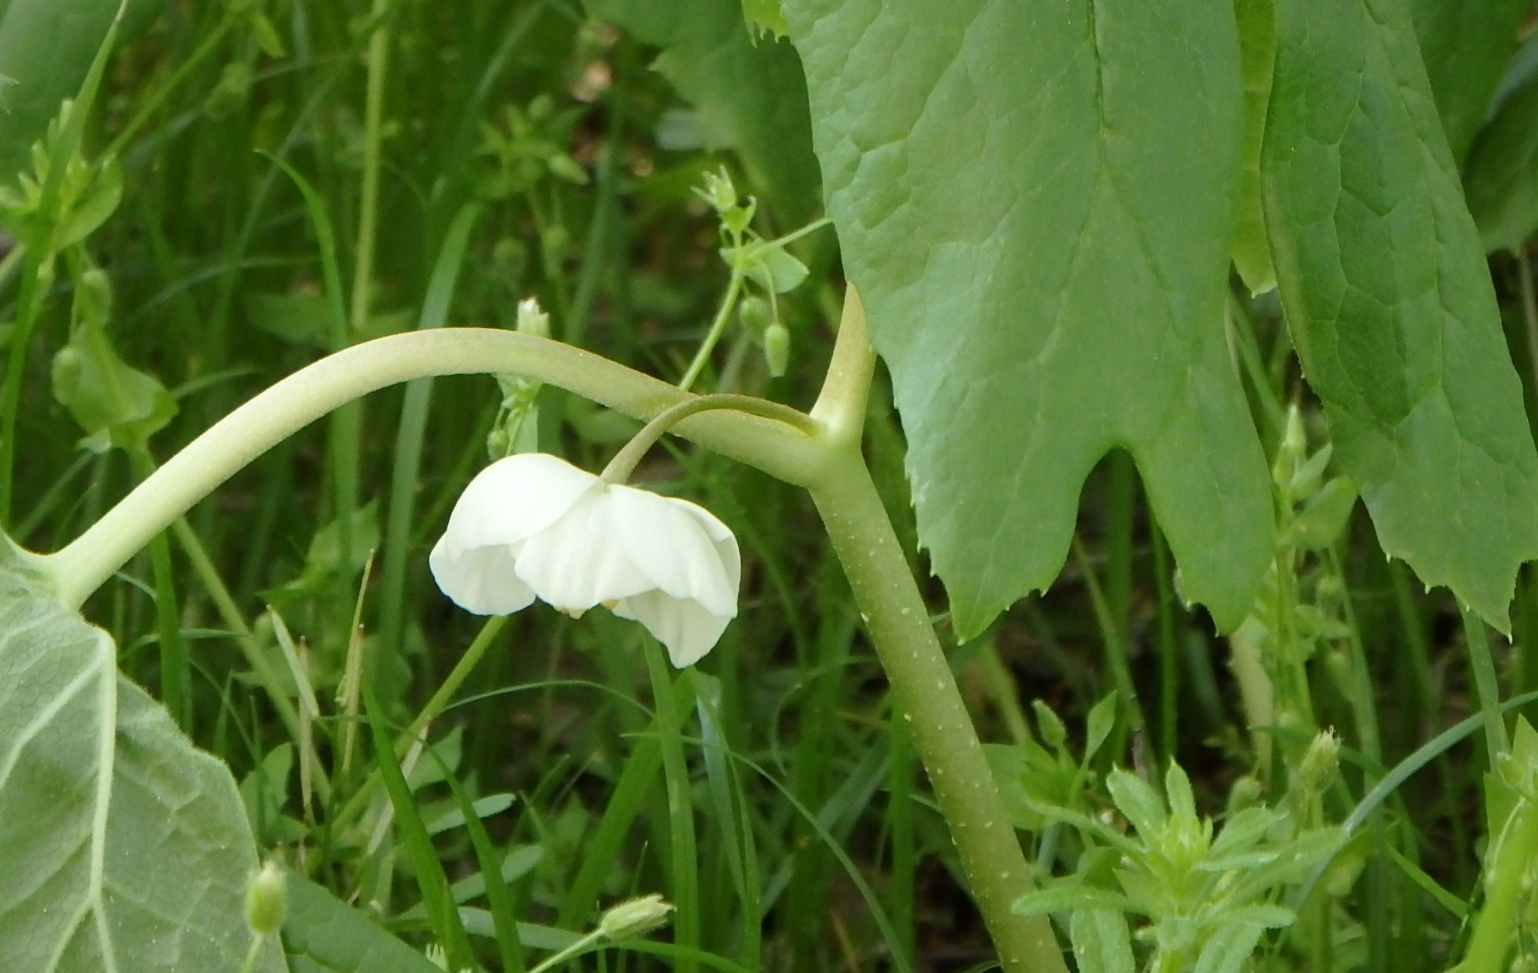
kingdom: Plantae
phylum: Tracheophyta
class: Magnoliopsida
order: Ranunculales
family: Berberidaceae
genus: Podophyllum
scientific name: Podophyllum peltatum
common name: Wild mandrake
